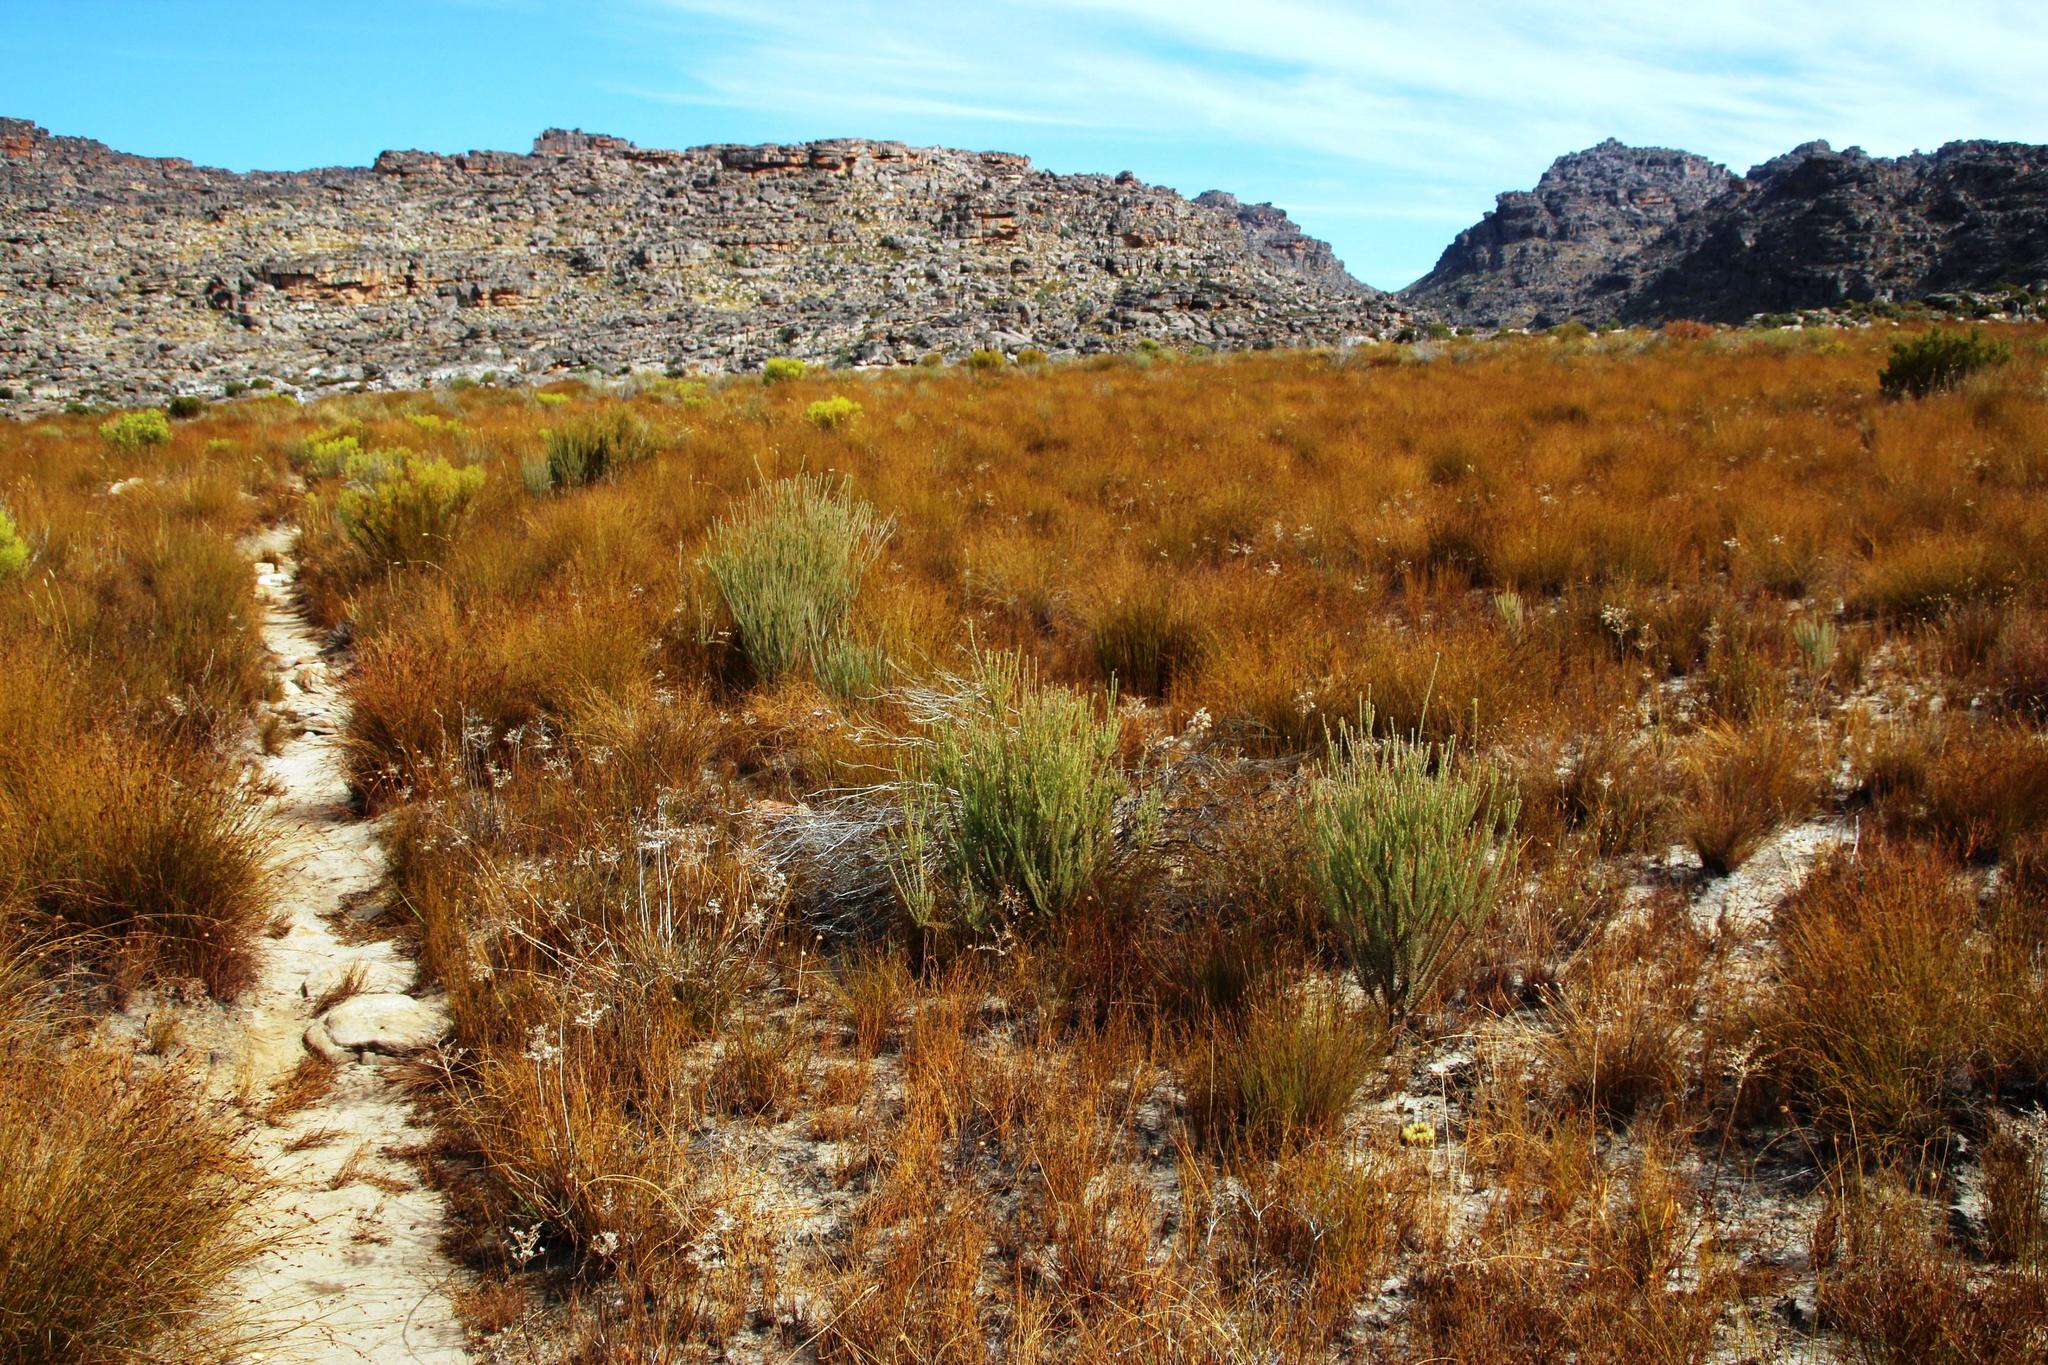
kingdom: Plantae
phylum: Tracheophyta
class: Magnoliopsida
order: Proteales
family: Proteaceae
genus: Leucadendron
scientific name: Leucadendron dubium
